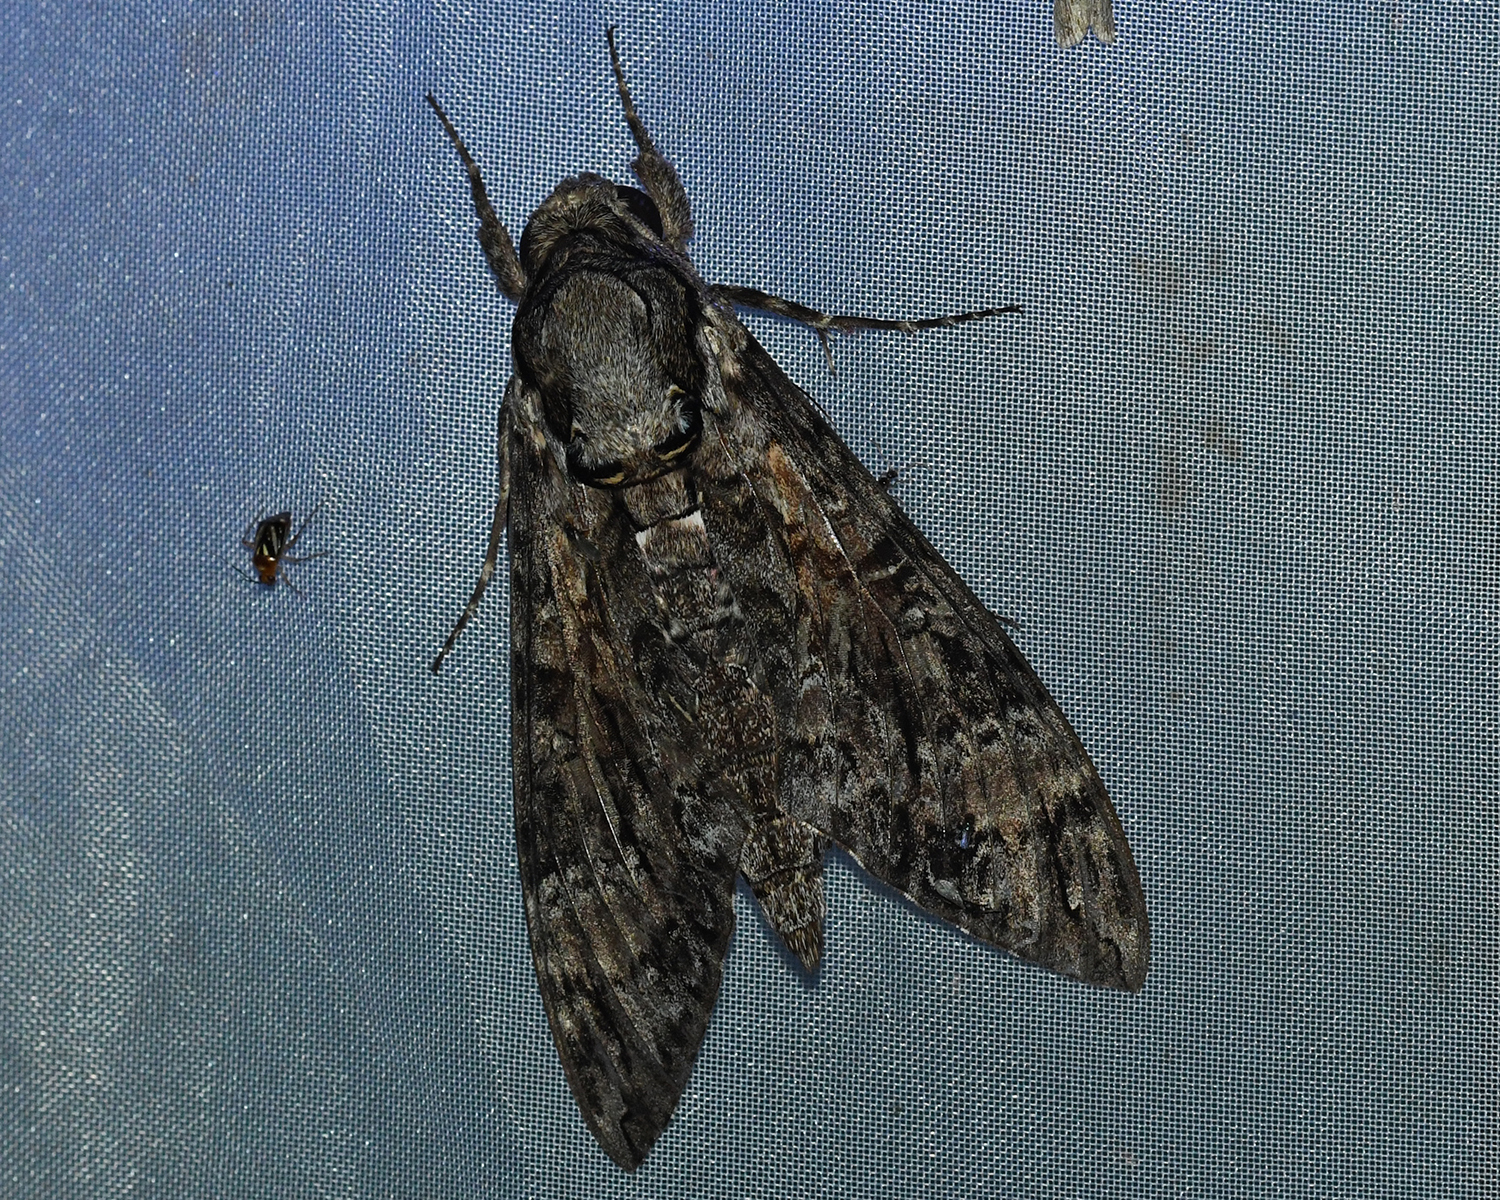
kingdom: Animalia
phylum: Arthropoda
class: Insecta
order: Lepidoptera
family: Sphingidae
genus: Agrius
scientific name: Agrius cingulata
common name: Pink-spotted hawkmoth
